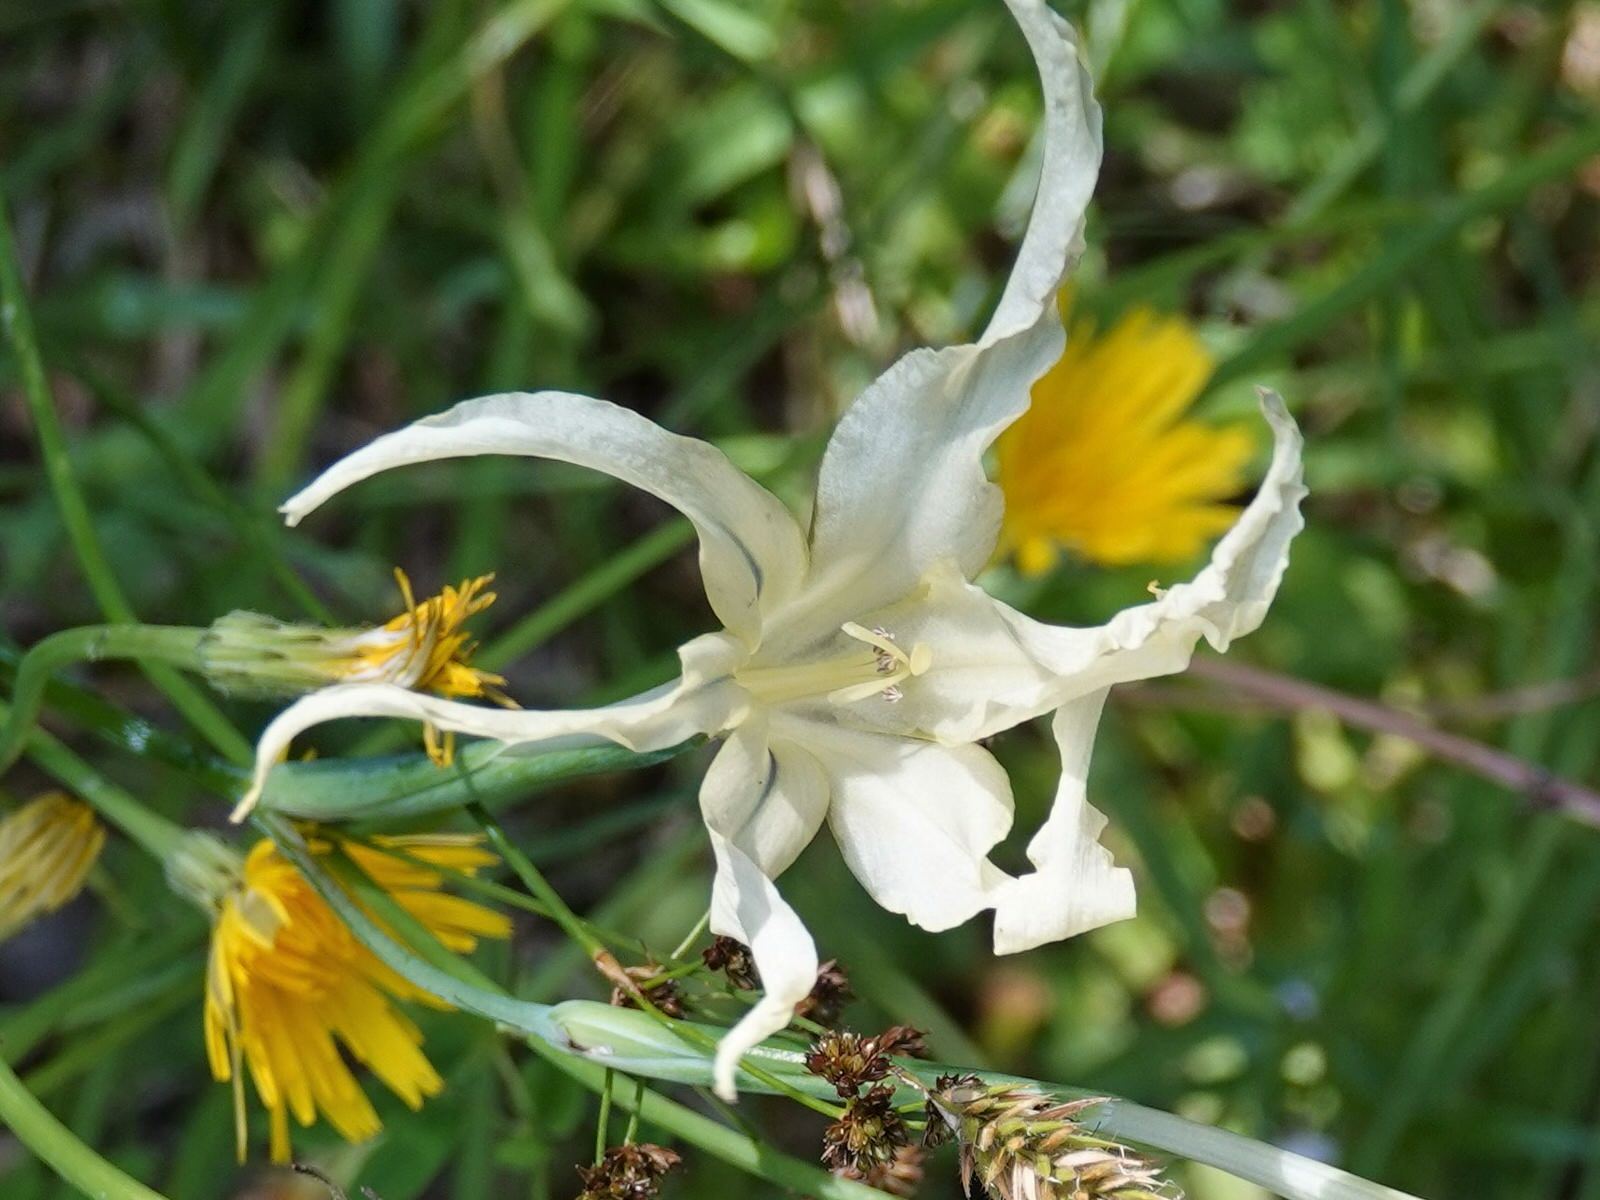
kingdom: Plantae
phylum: Tracheophyta
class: Liliopsida
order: Asparagales
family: Iridaceae
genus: Gladiolus
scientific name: Gladiolus undulatus
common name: Large painted-lady
